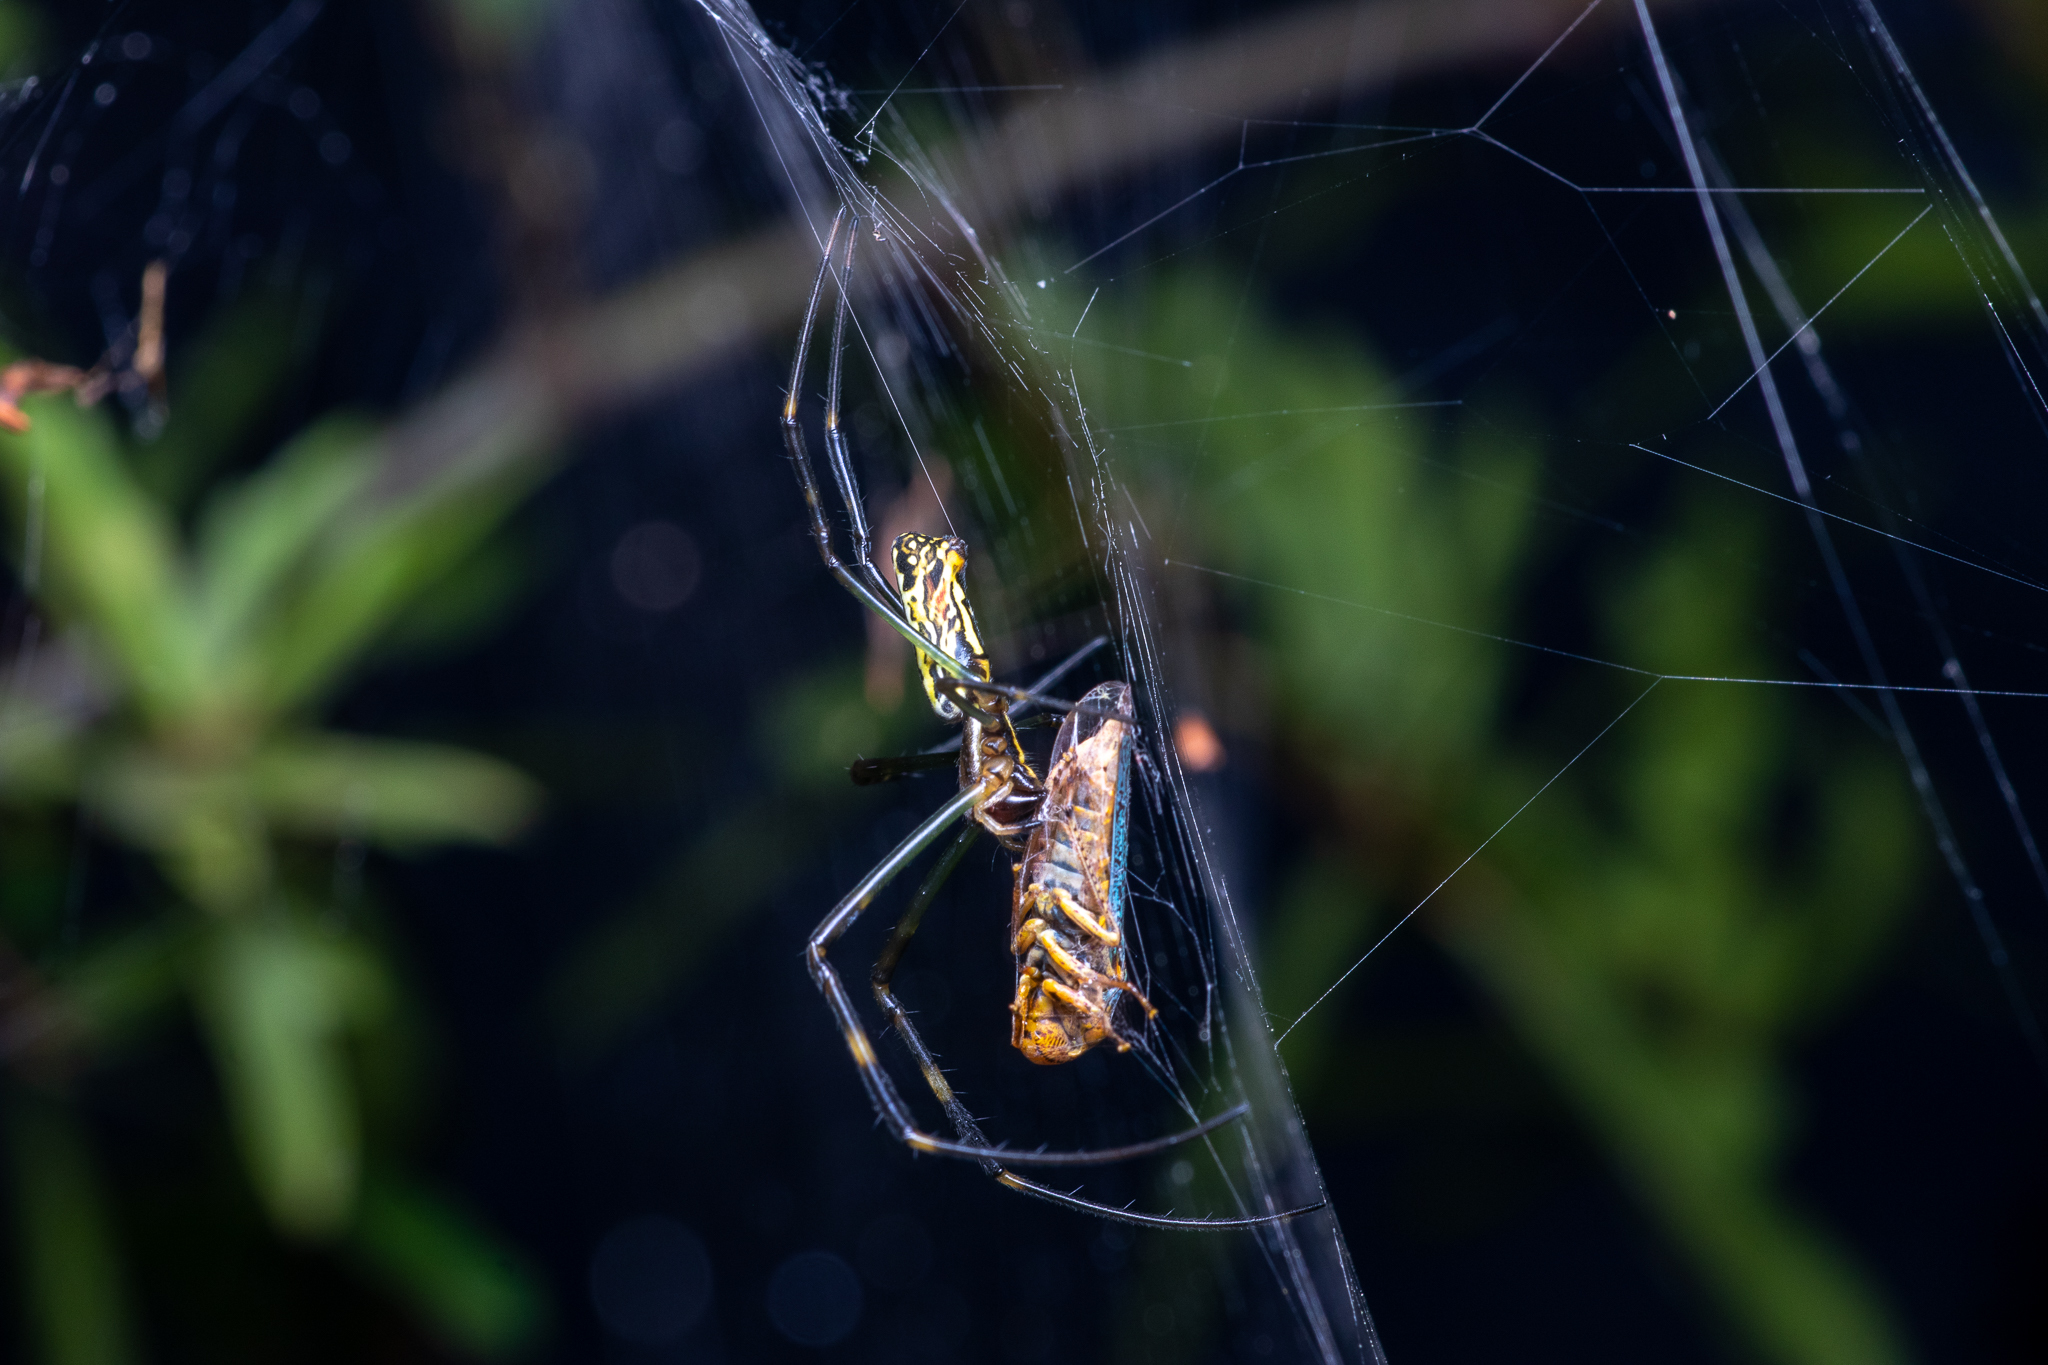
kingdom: Animalia
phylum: Arthropoda
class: Arachnida
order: Araneae
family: Araneidae
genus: Trichonephila
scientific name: Trichonephila clavata
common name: Jorō spider
